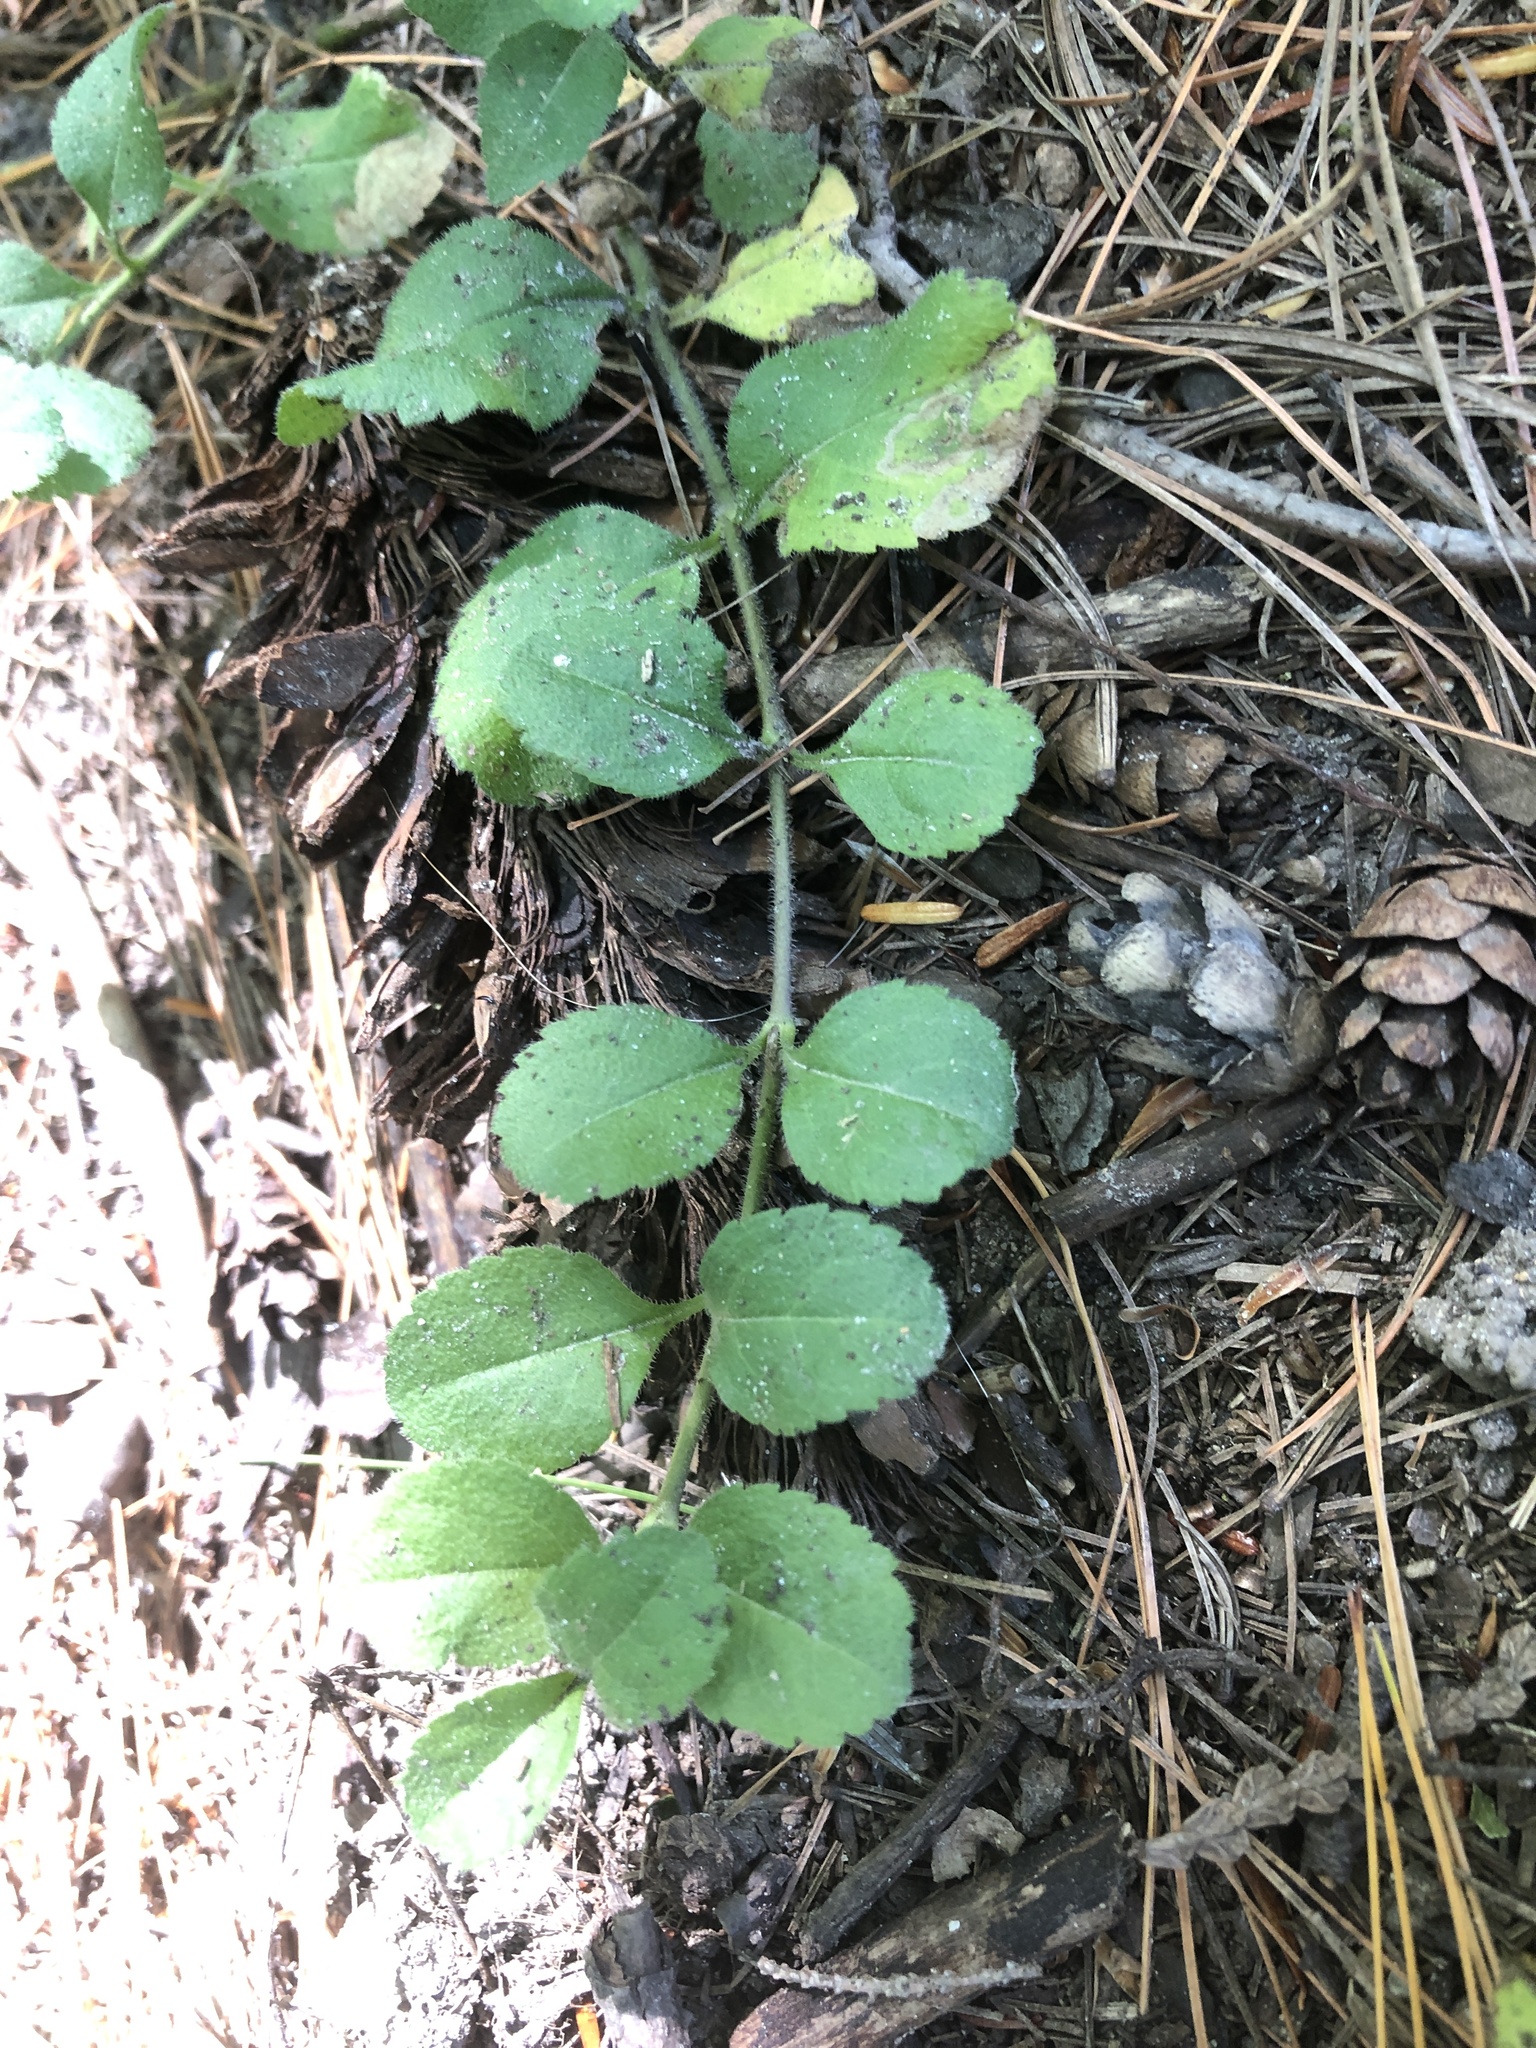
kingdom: Plantae
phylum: Tracheophyta
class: Magnoliopsida
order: Lamiales
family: Plantaginaceae
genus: Veronica
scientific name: Veronica officinalis
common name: Common speedwell
